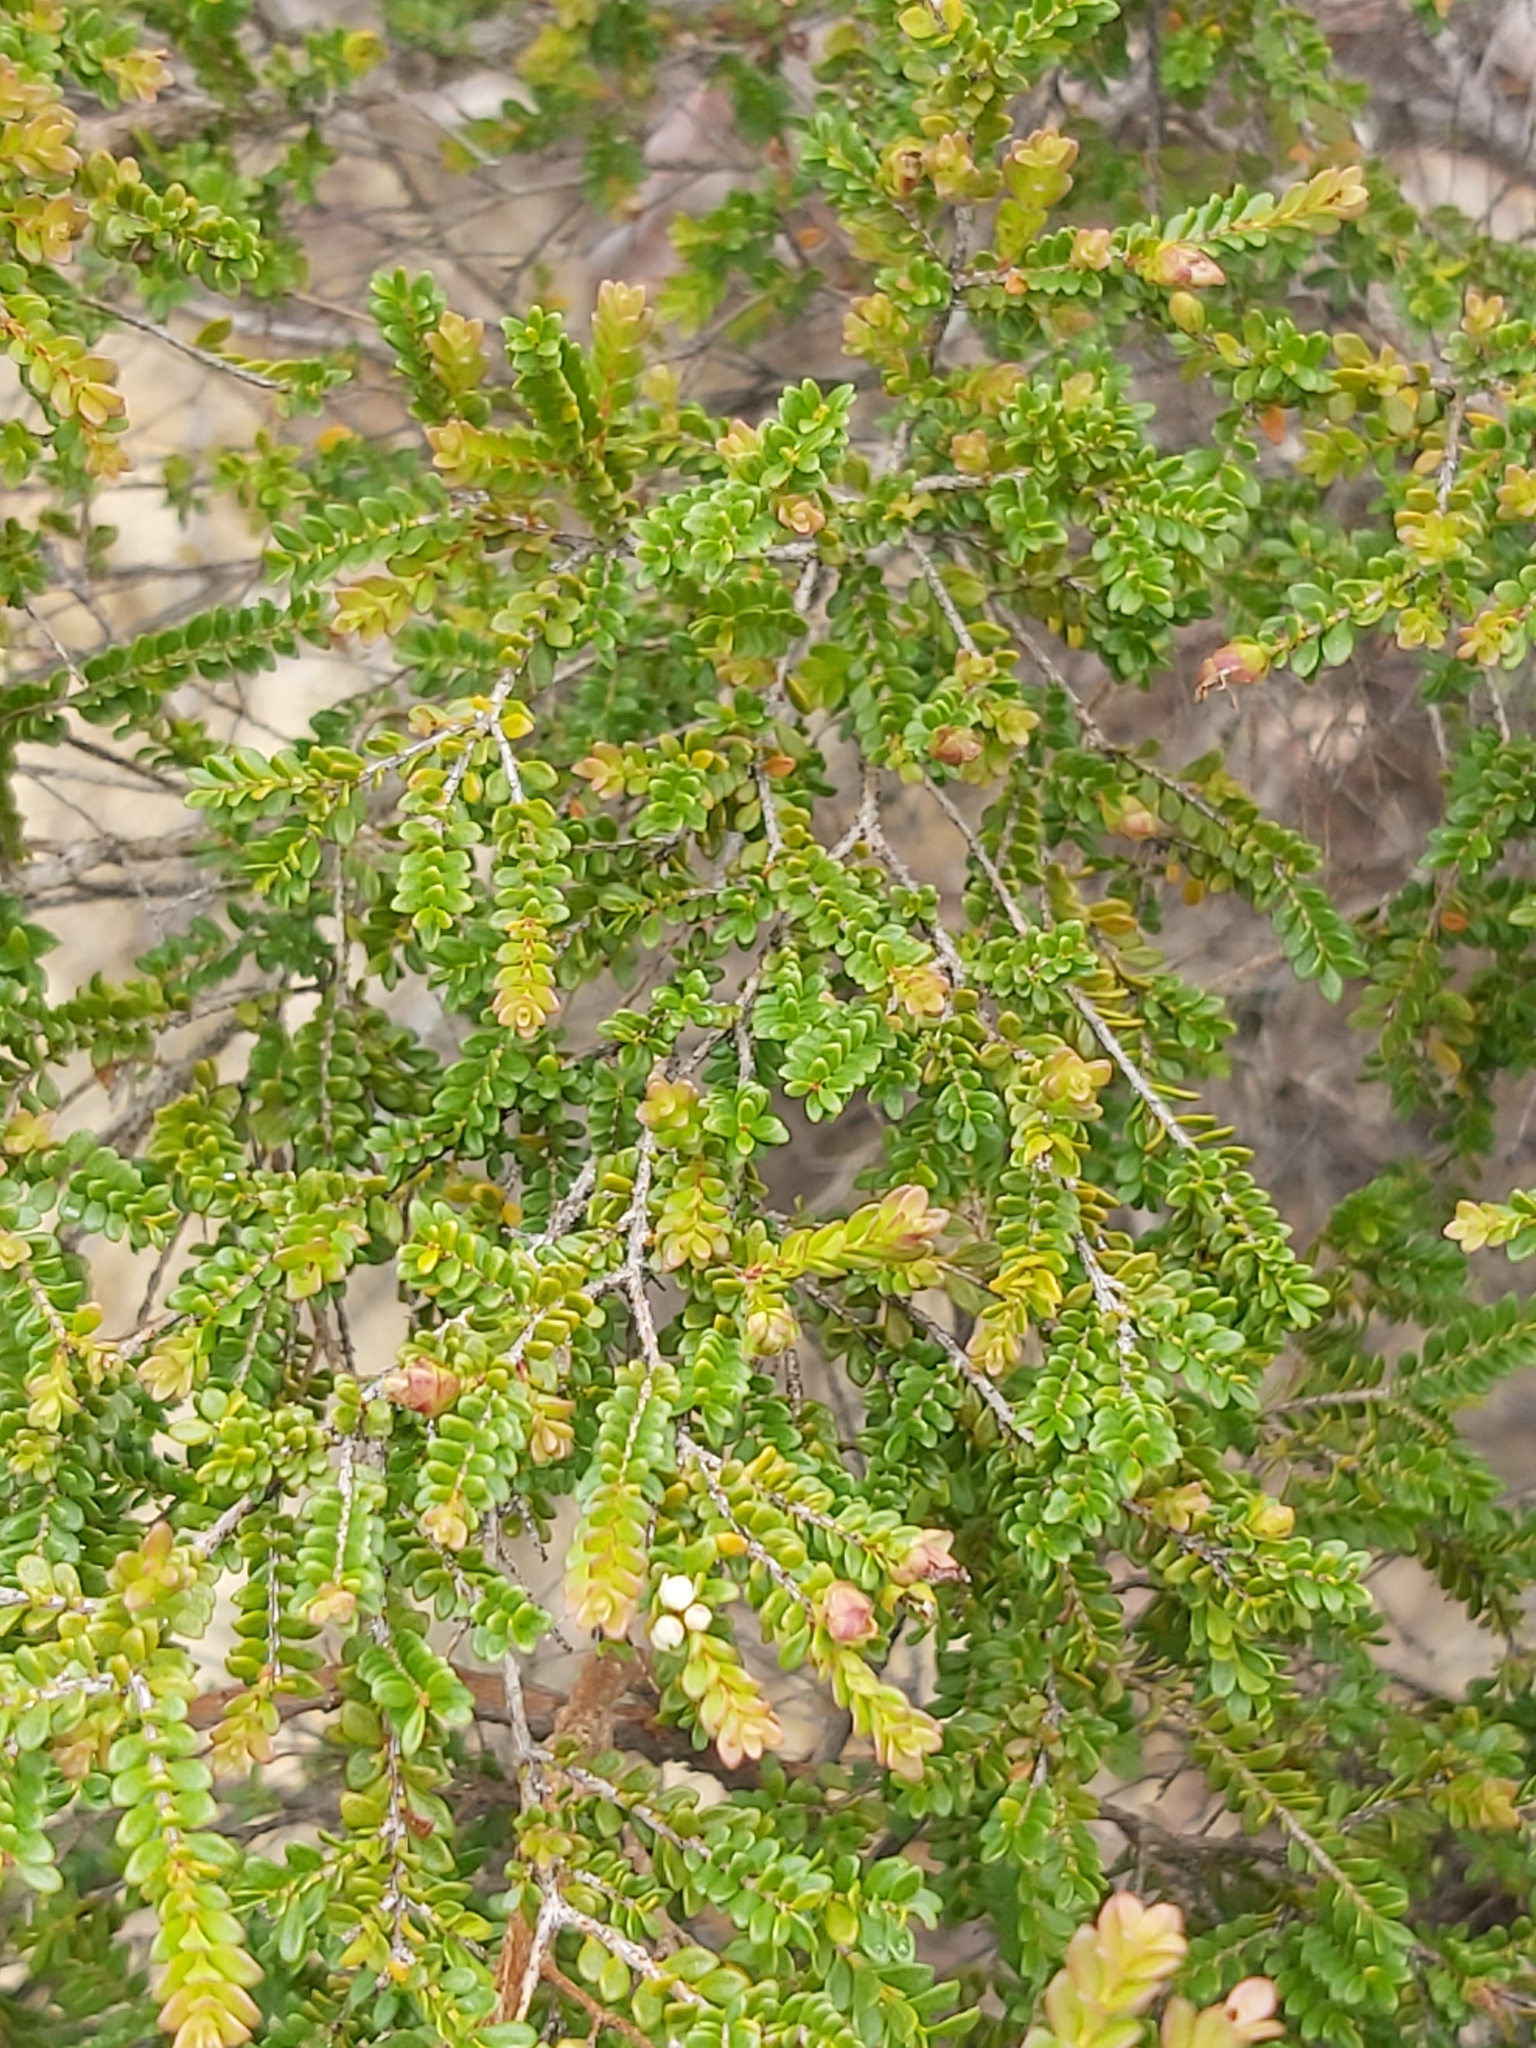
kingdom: Plantae
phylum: Tracheophyta
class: Magnoliopsida
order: Myrtales
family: Myrtaceae
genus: Thryptomene
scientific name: Thryptomene oligandra
